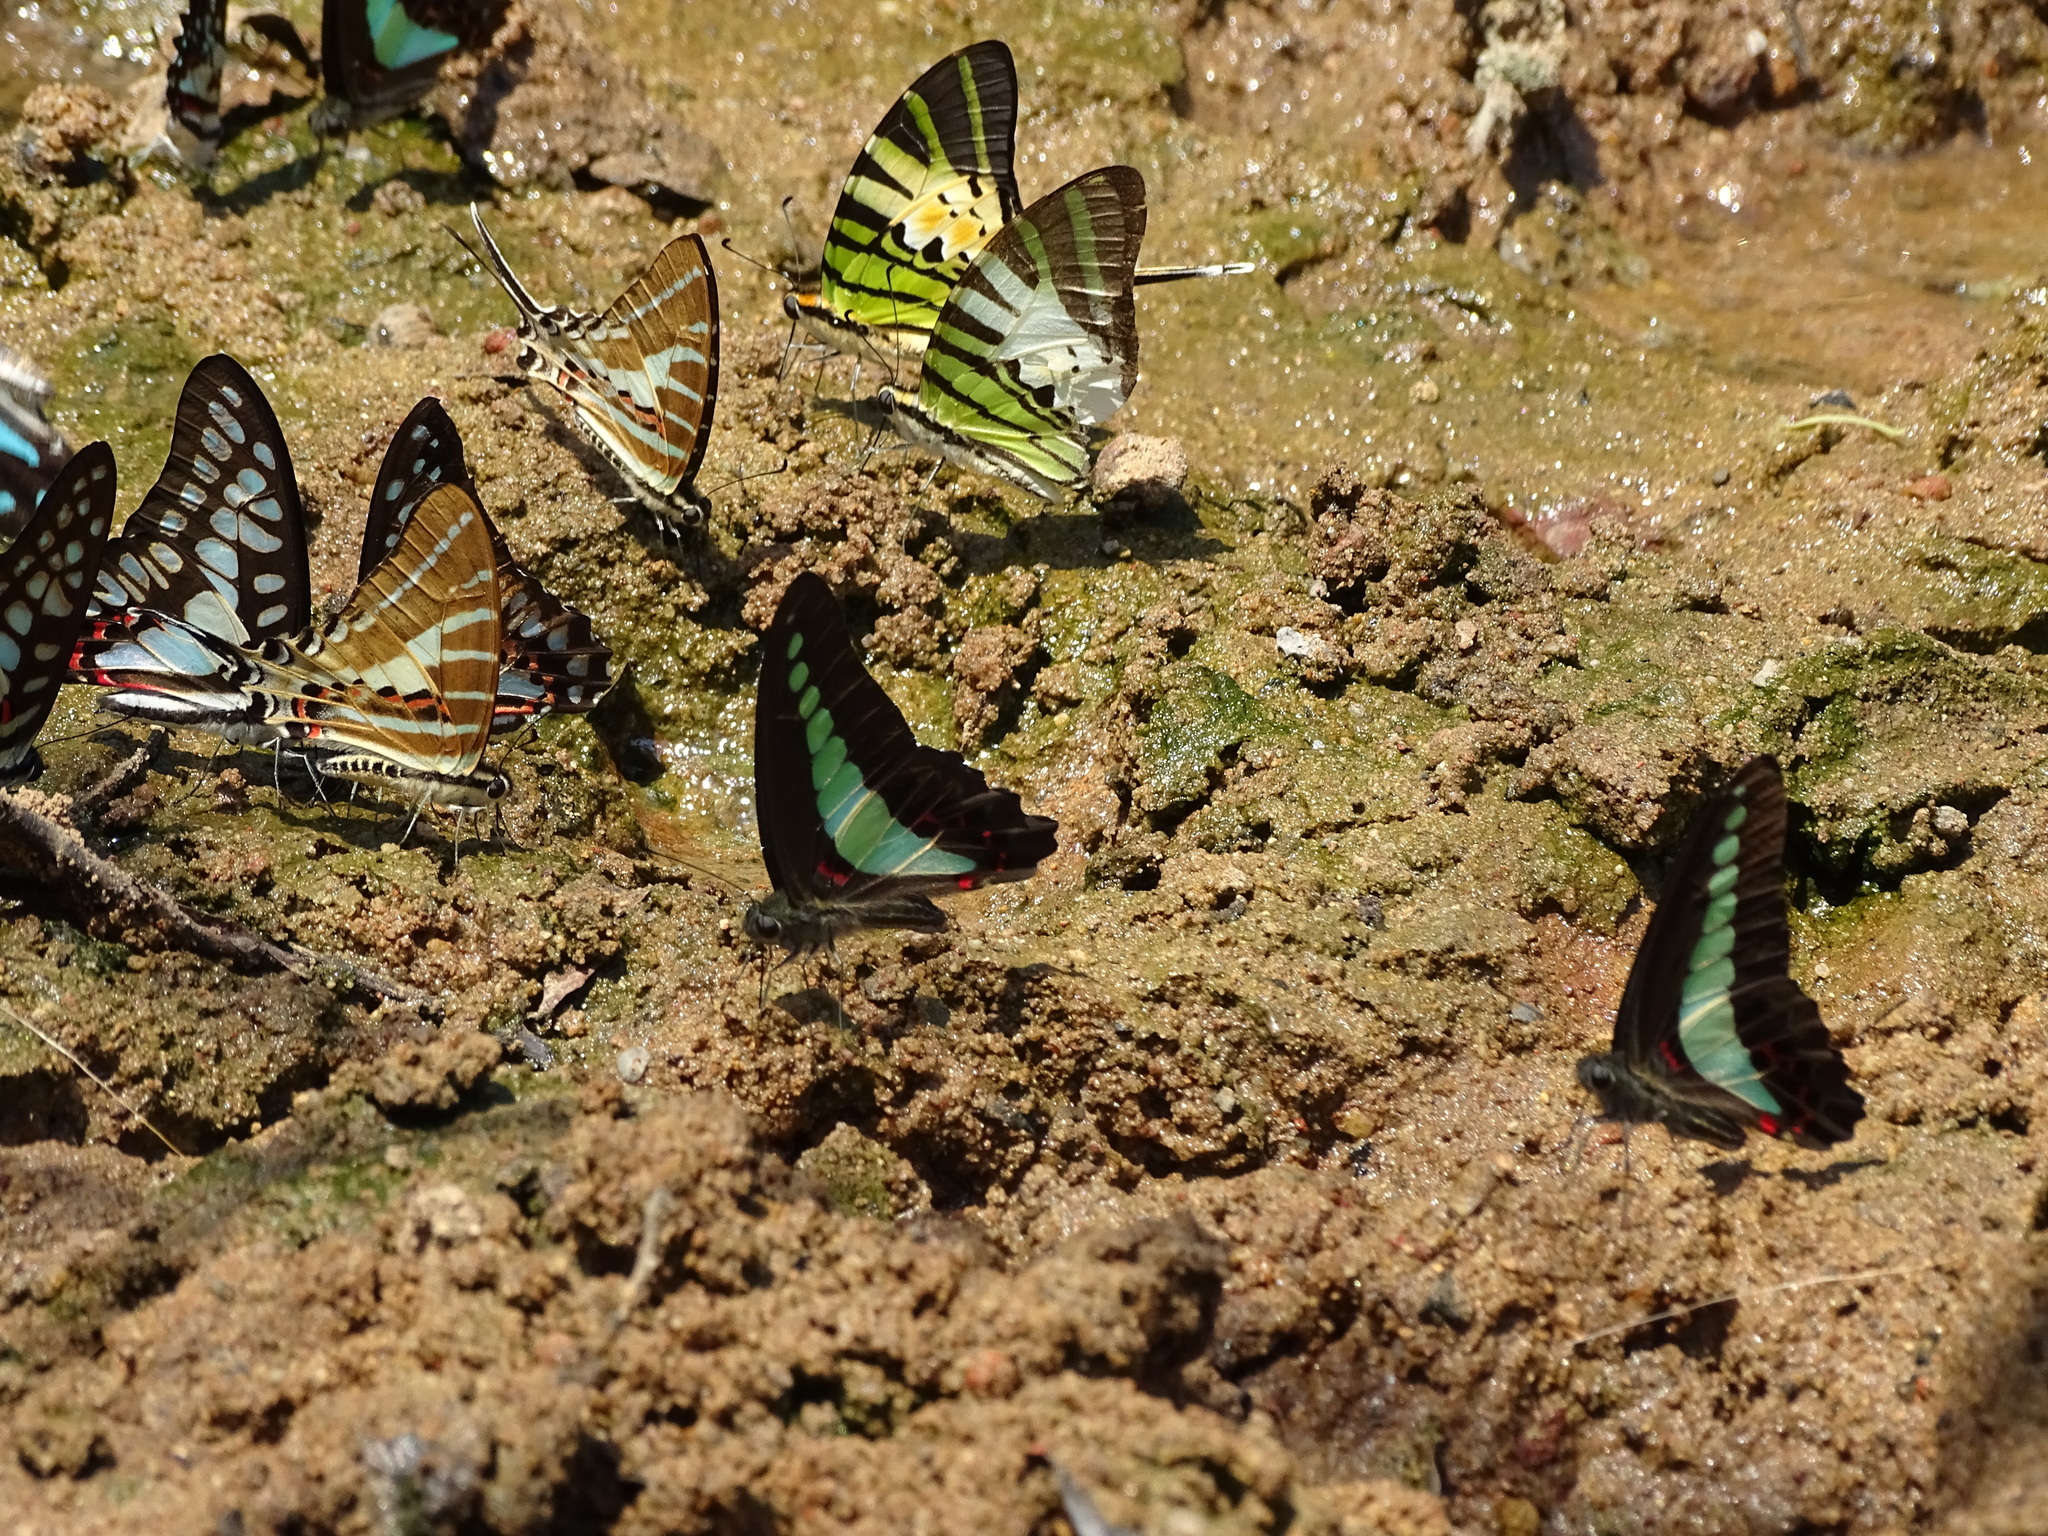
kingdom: Animalia
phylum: Arthropoda
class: Insecta
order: Lepidoptera
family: Papilionidae
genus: Graphium
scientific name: Graphium antiphates
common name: Fivebar swordtail
